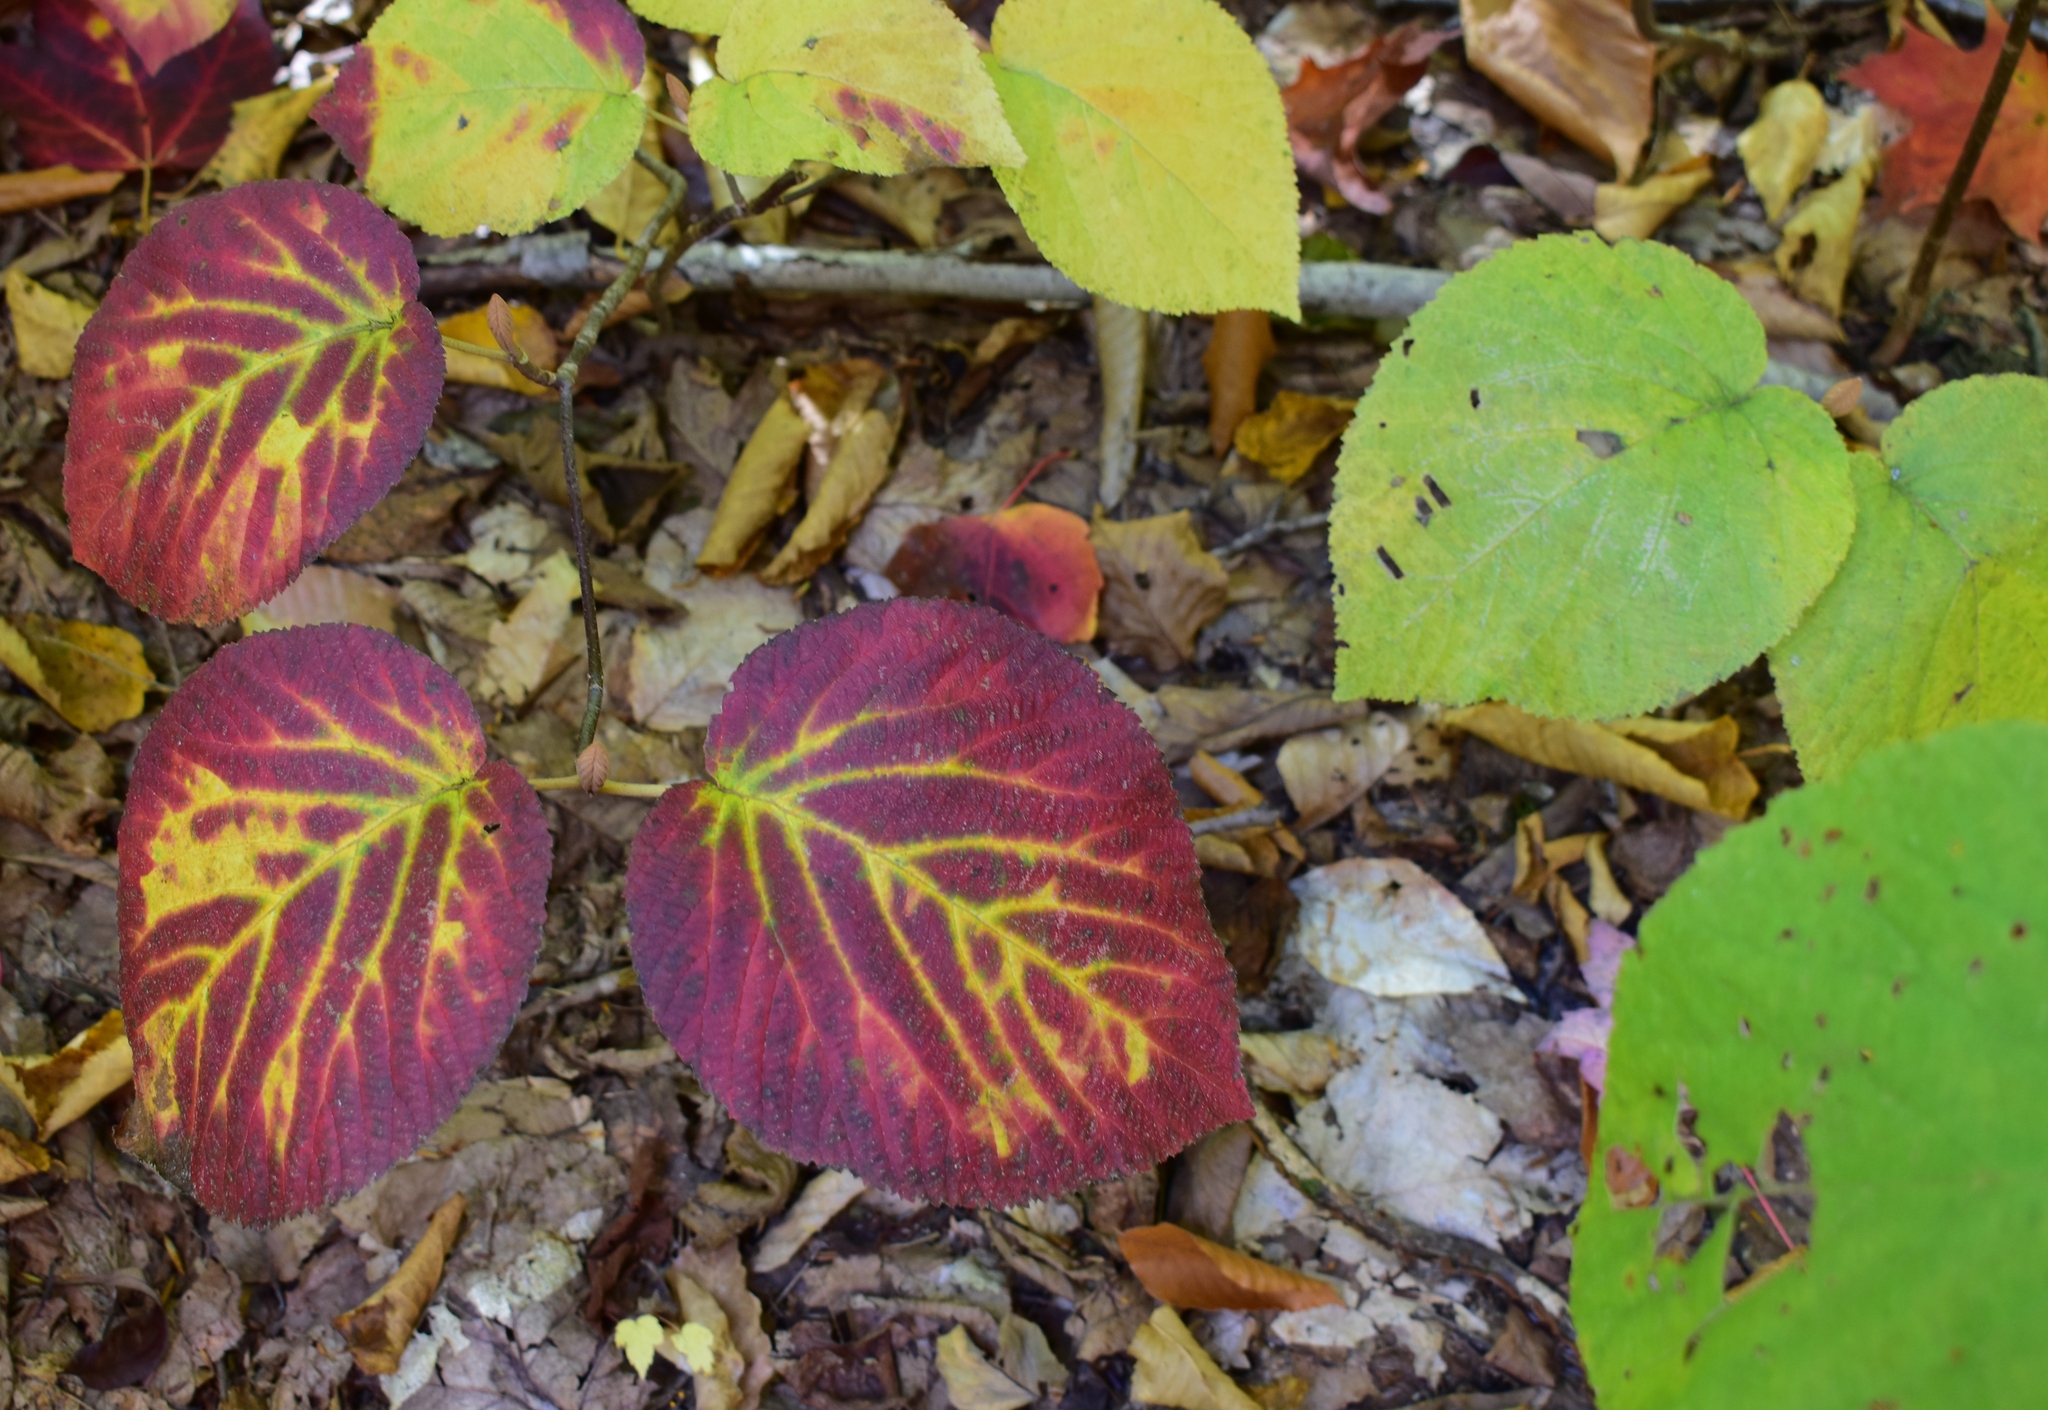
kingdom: Plantae
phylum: Tracheophyta
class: Magnoliopsida
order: Dipsacales
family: Viburnaceae
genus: Viburnum
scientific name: Viburnum lantanoides
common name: Hobblebush
